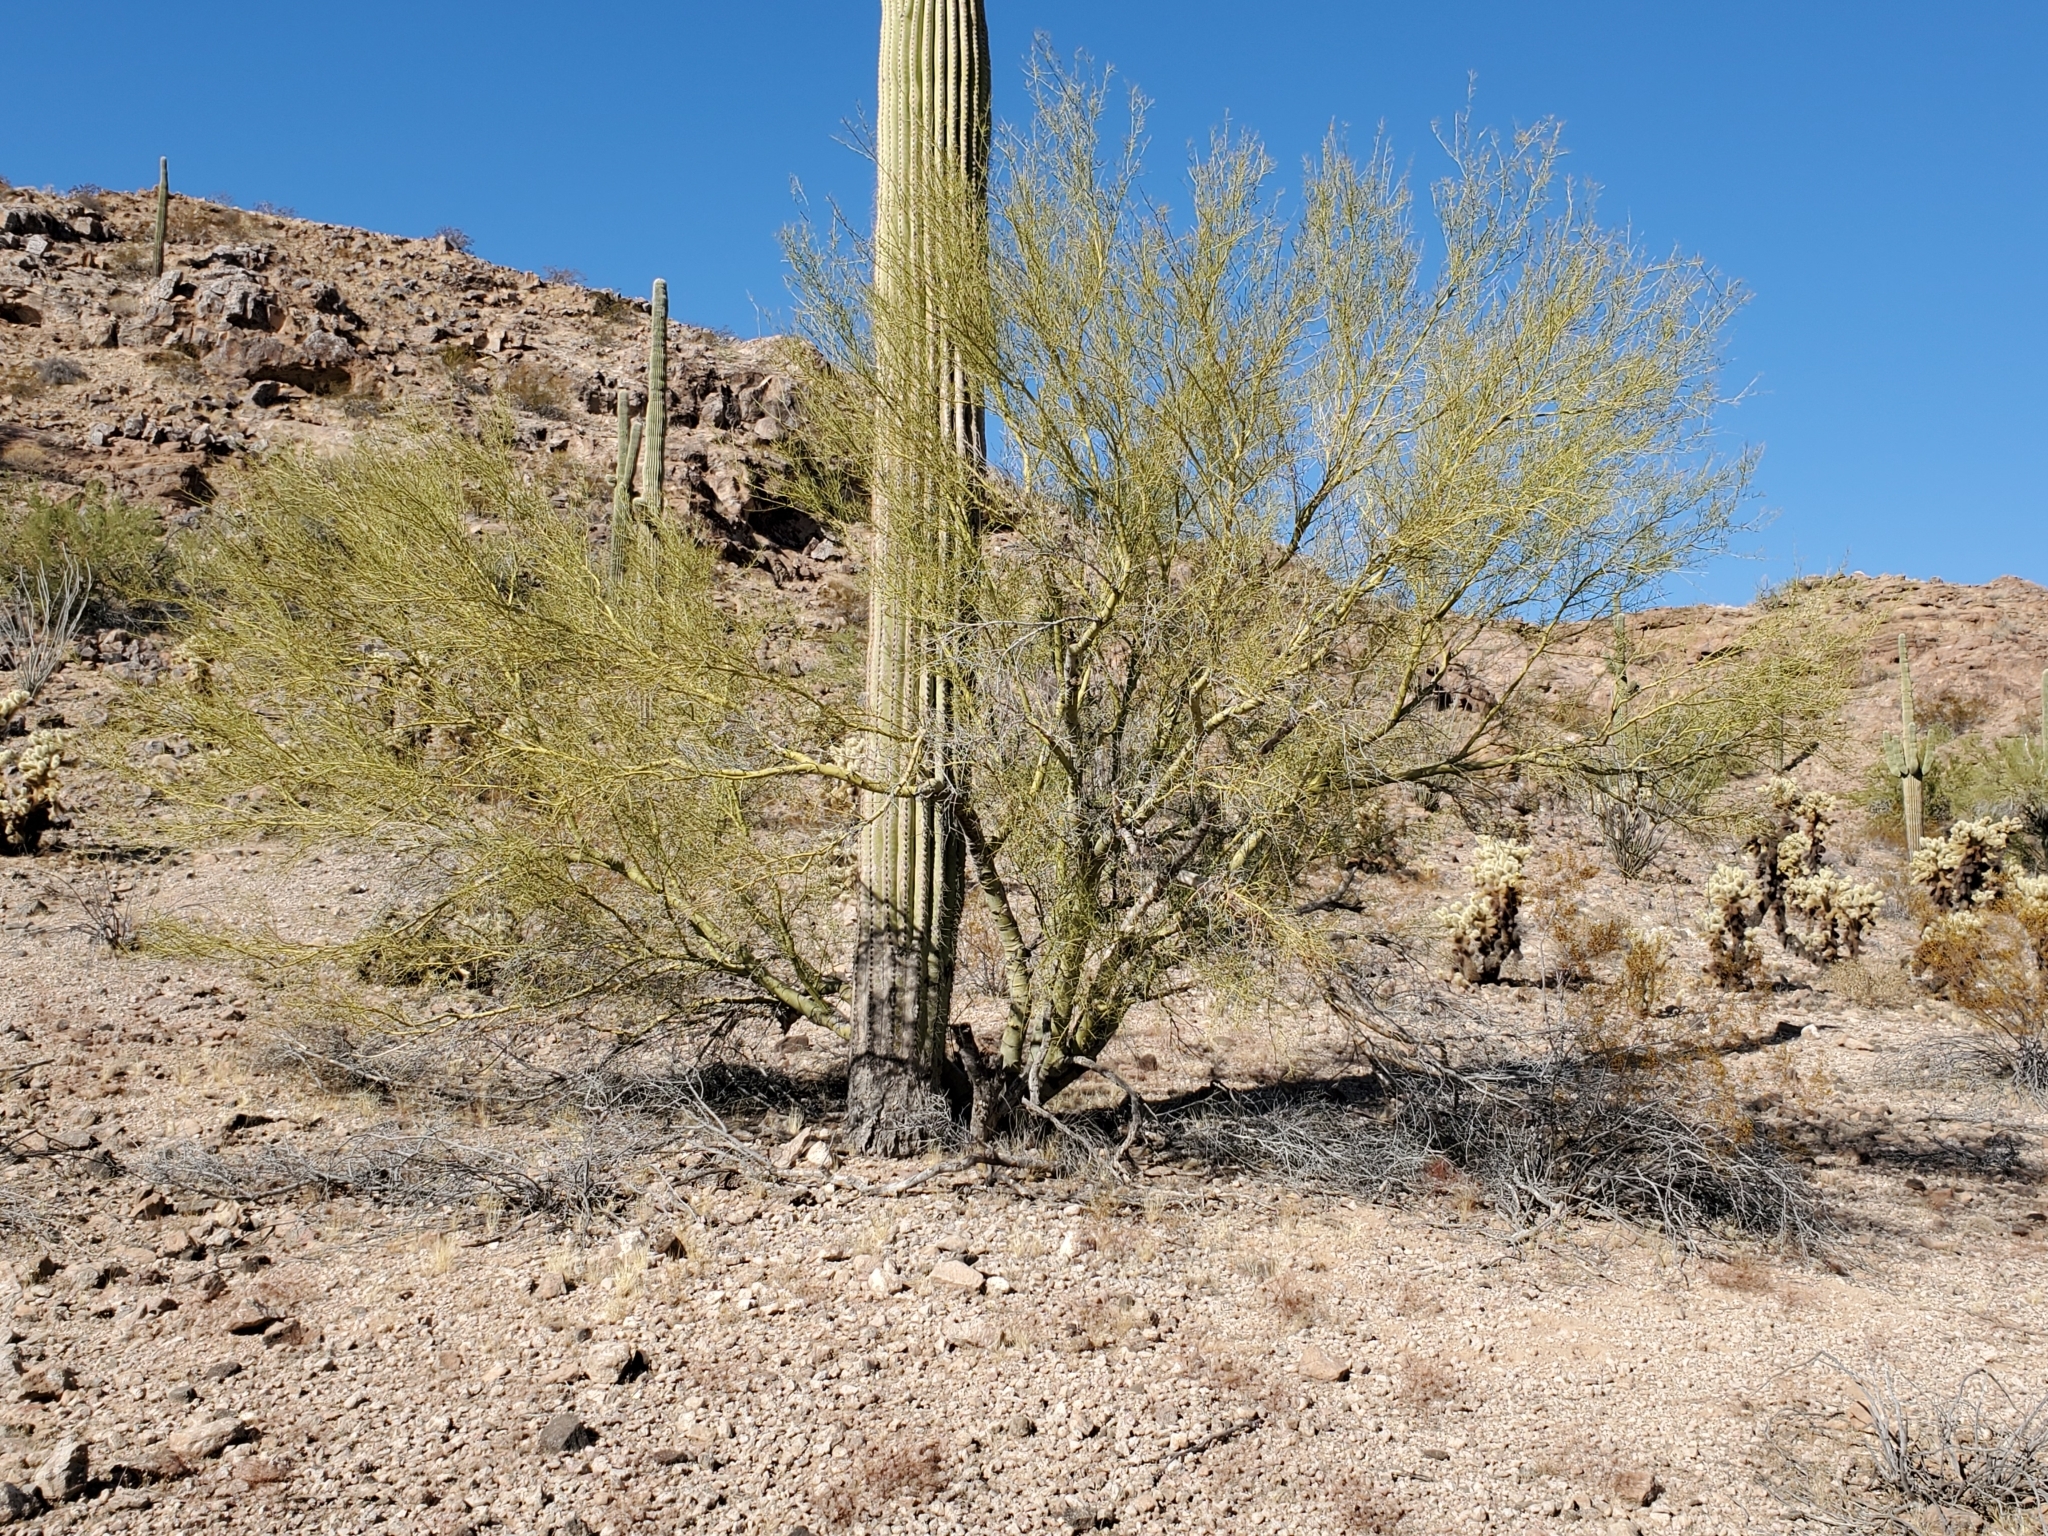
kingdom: Plantae
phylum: Tracheophyta
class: Magnoliopsida
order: Caryophyllales
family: Cactaceae
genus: Carnegiea
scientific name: Carnegiea gigantea
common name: Saguaro
